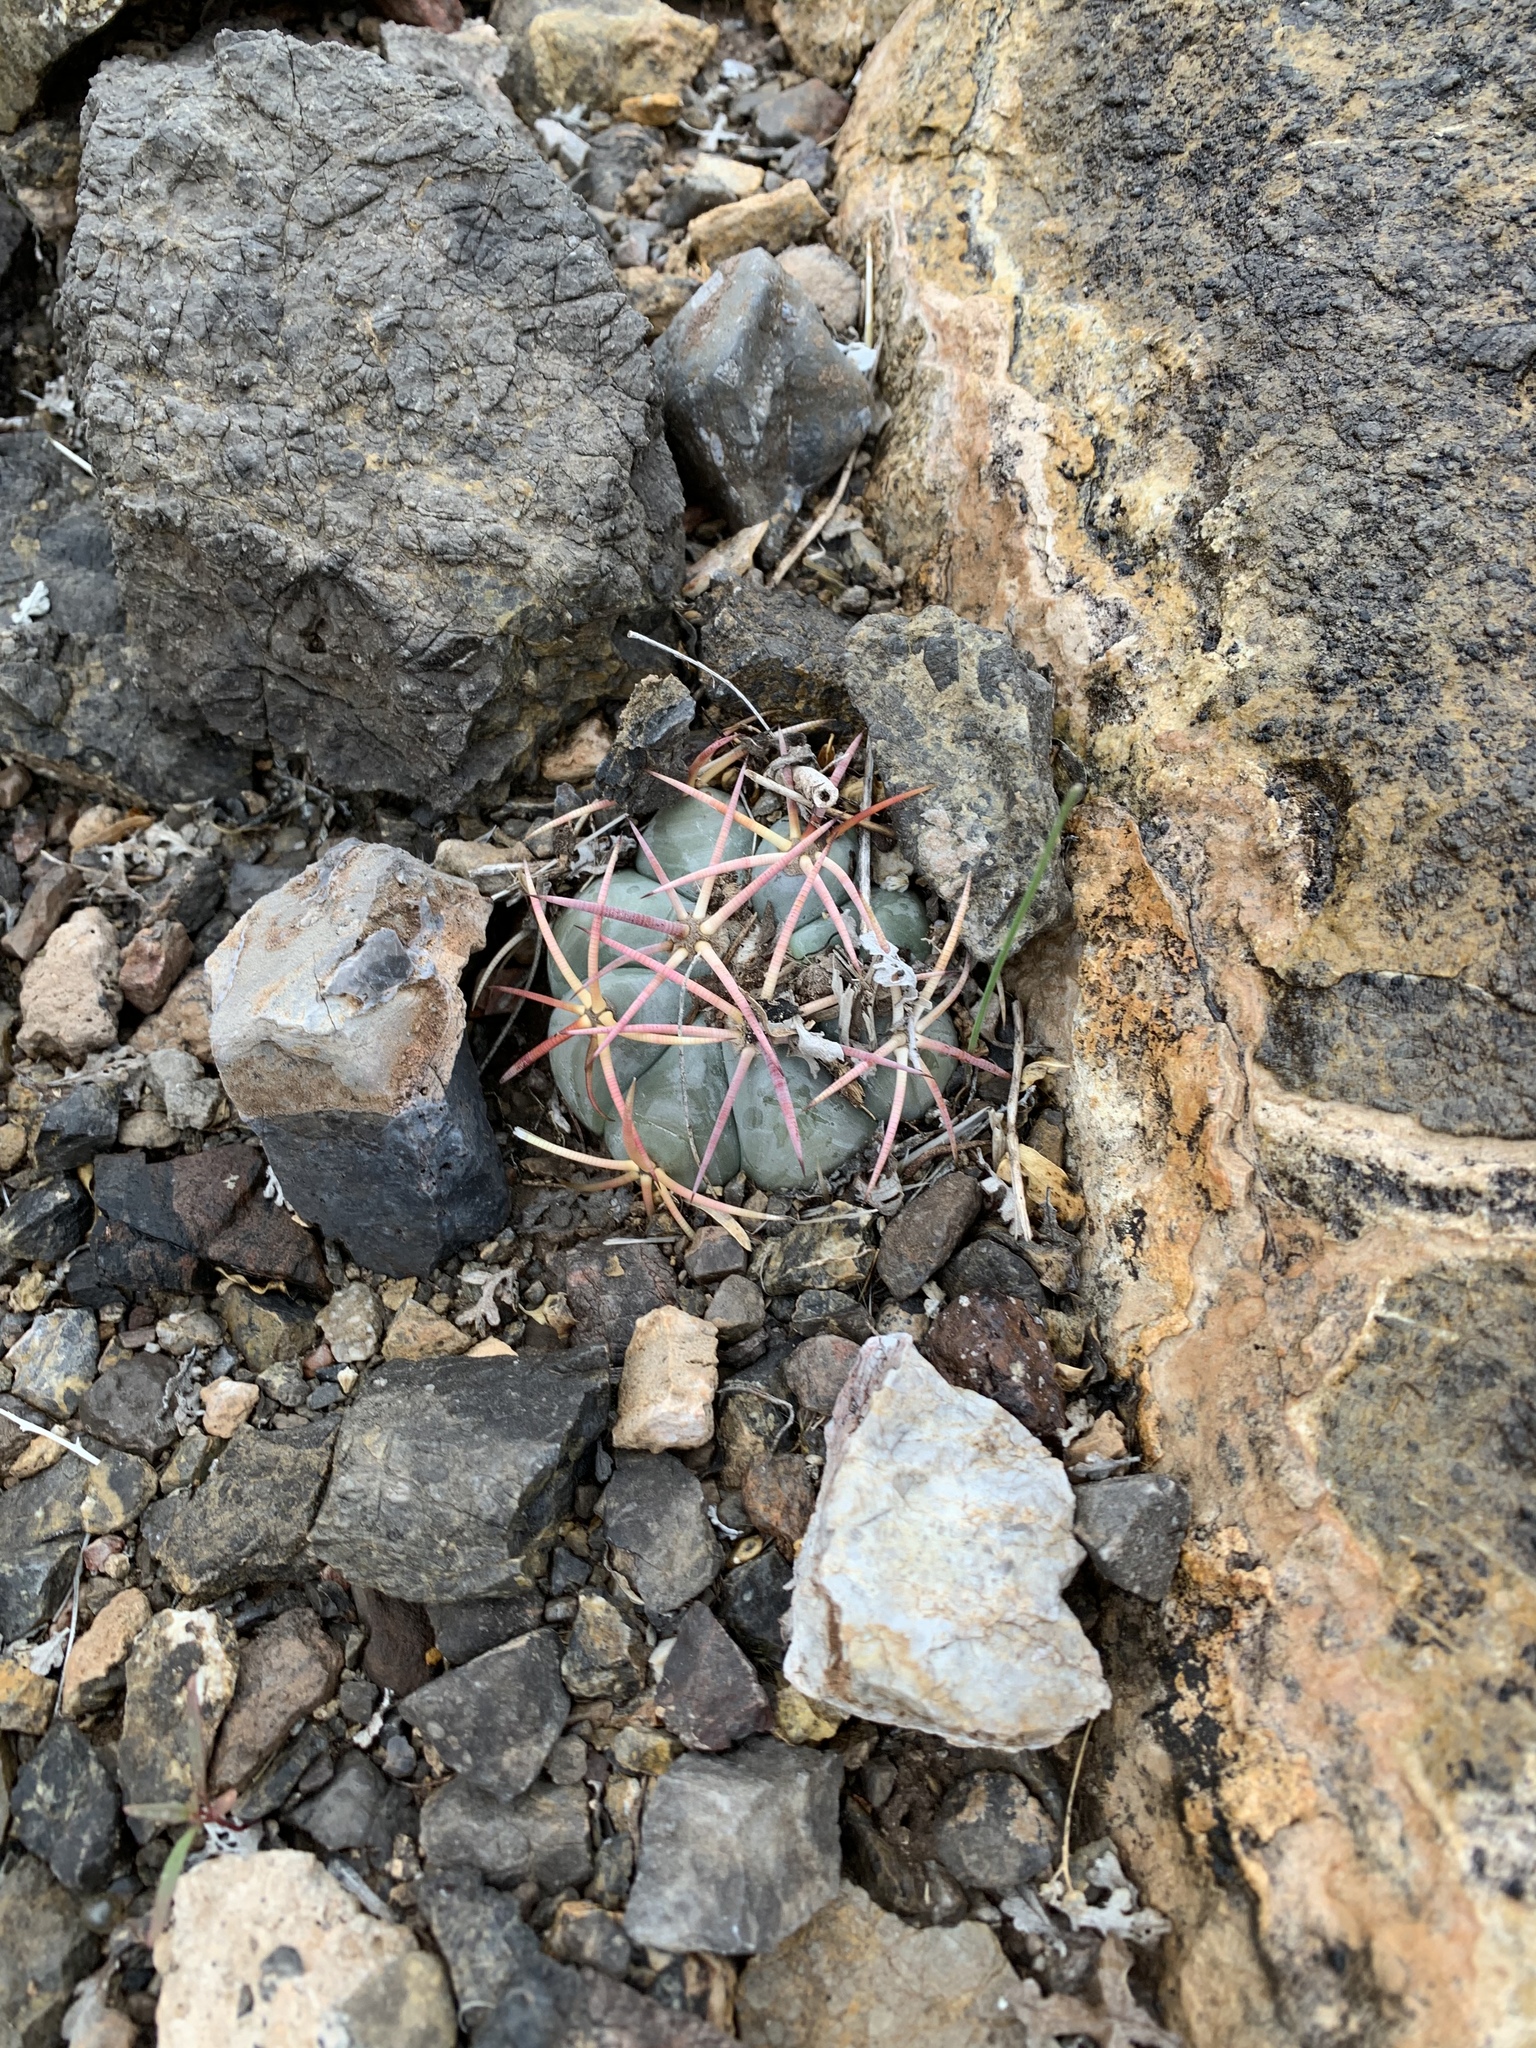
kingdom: Plantae
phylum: Tracheophyta
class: Magnoliopsida
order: Caryophyllales
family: Cactaceae
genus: Echinocactus
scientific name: Echinocactus horizonthalonius
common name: Devilshead
